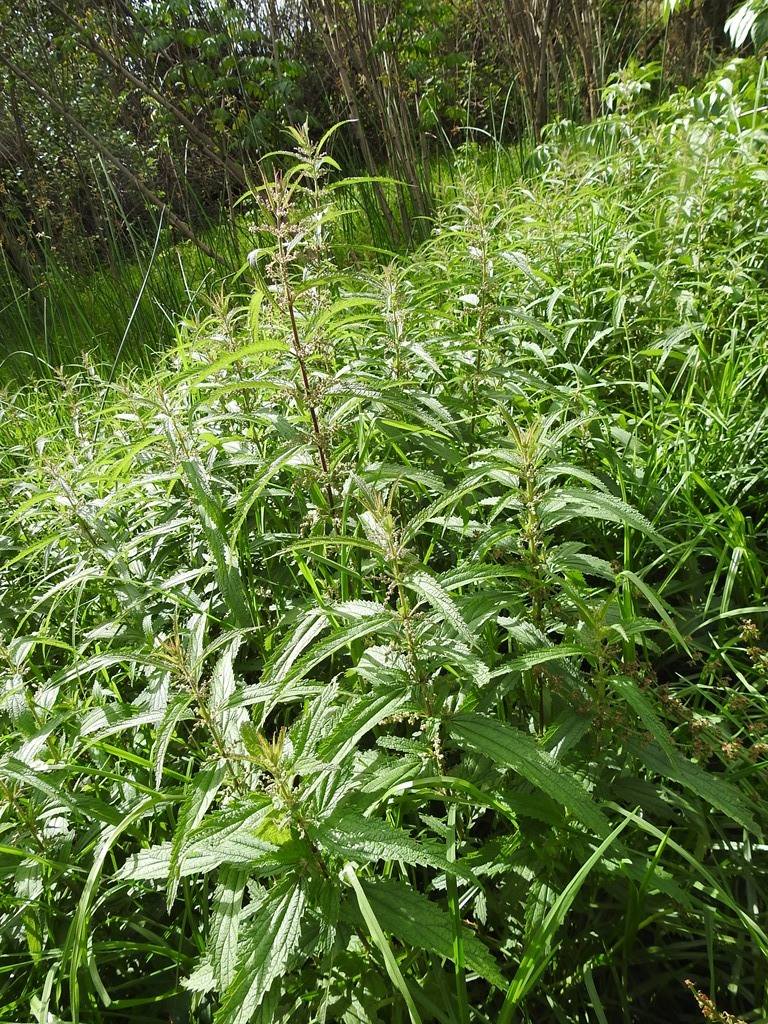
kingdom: Plantae
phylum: Tracheophyta
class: Magnoliopsida
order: Rosales
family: Urticaceae
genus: Urtica
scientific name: Urtica mexicana
